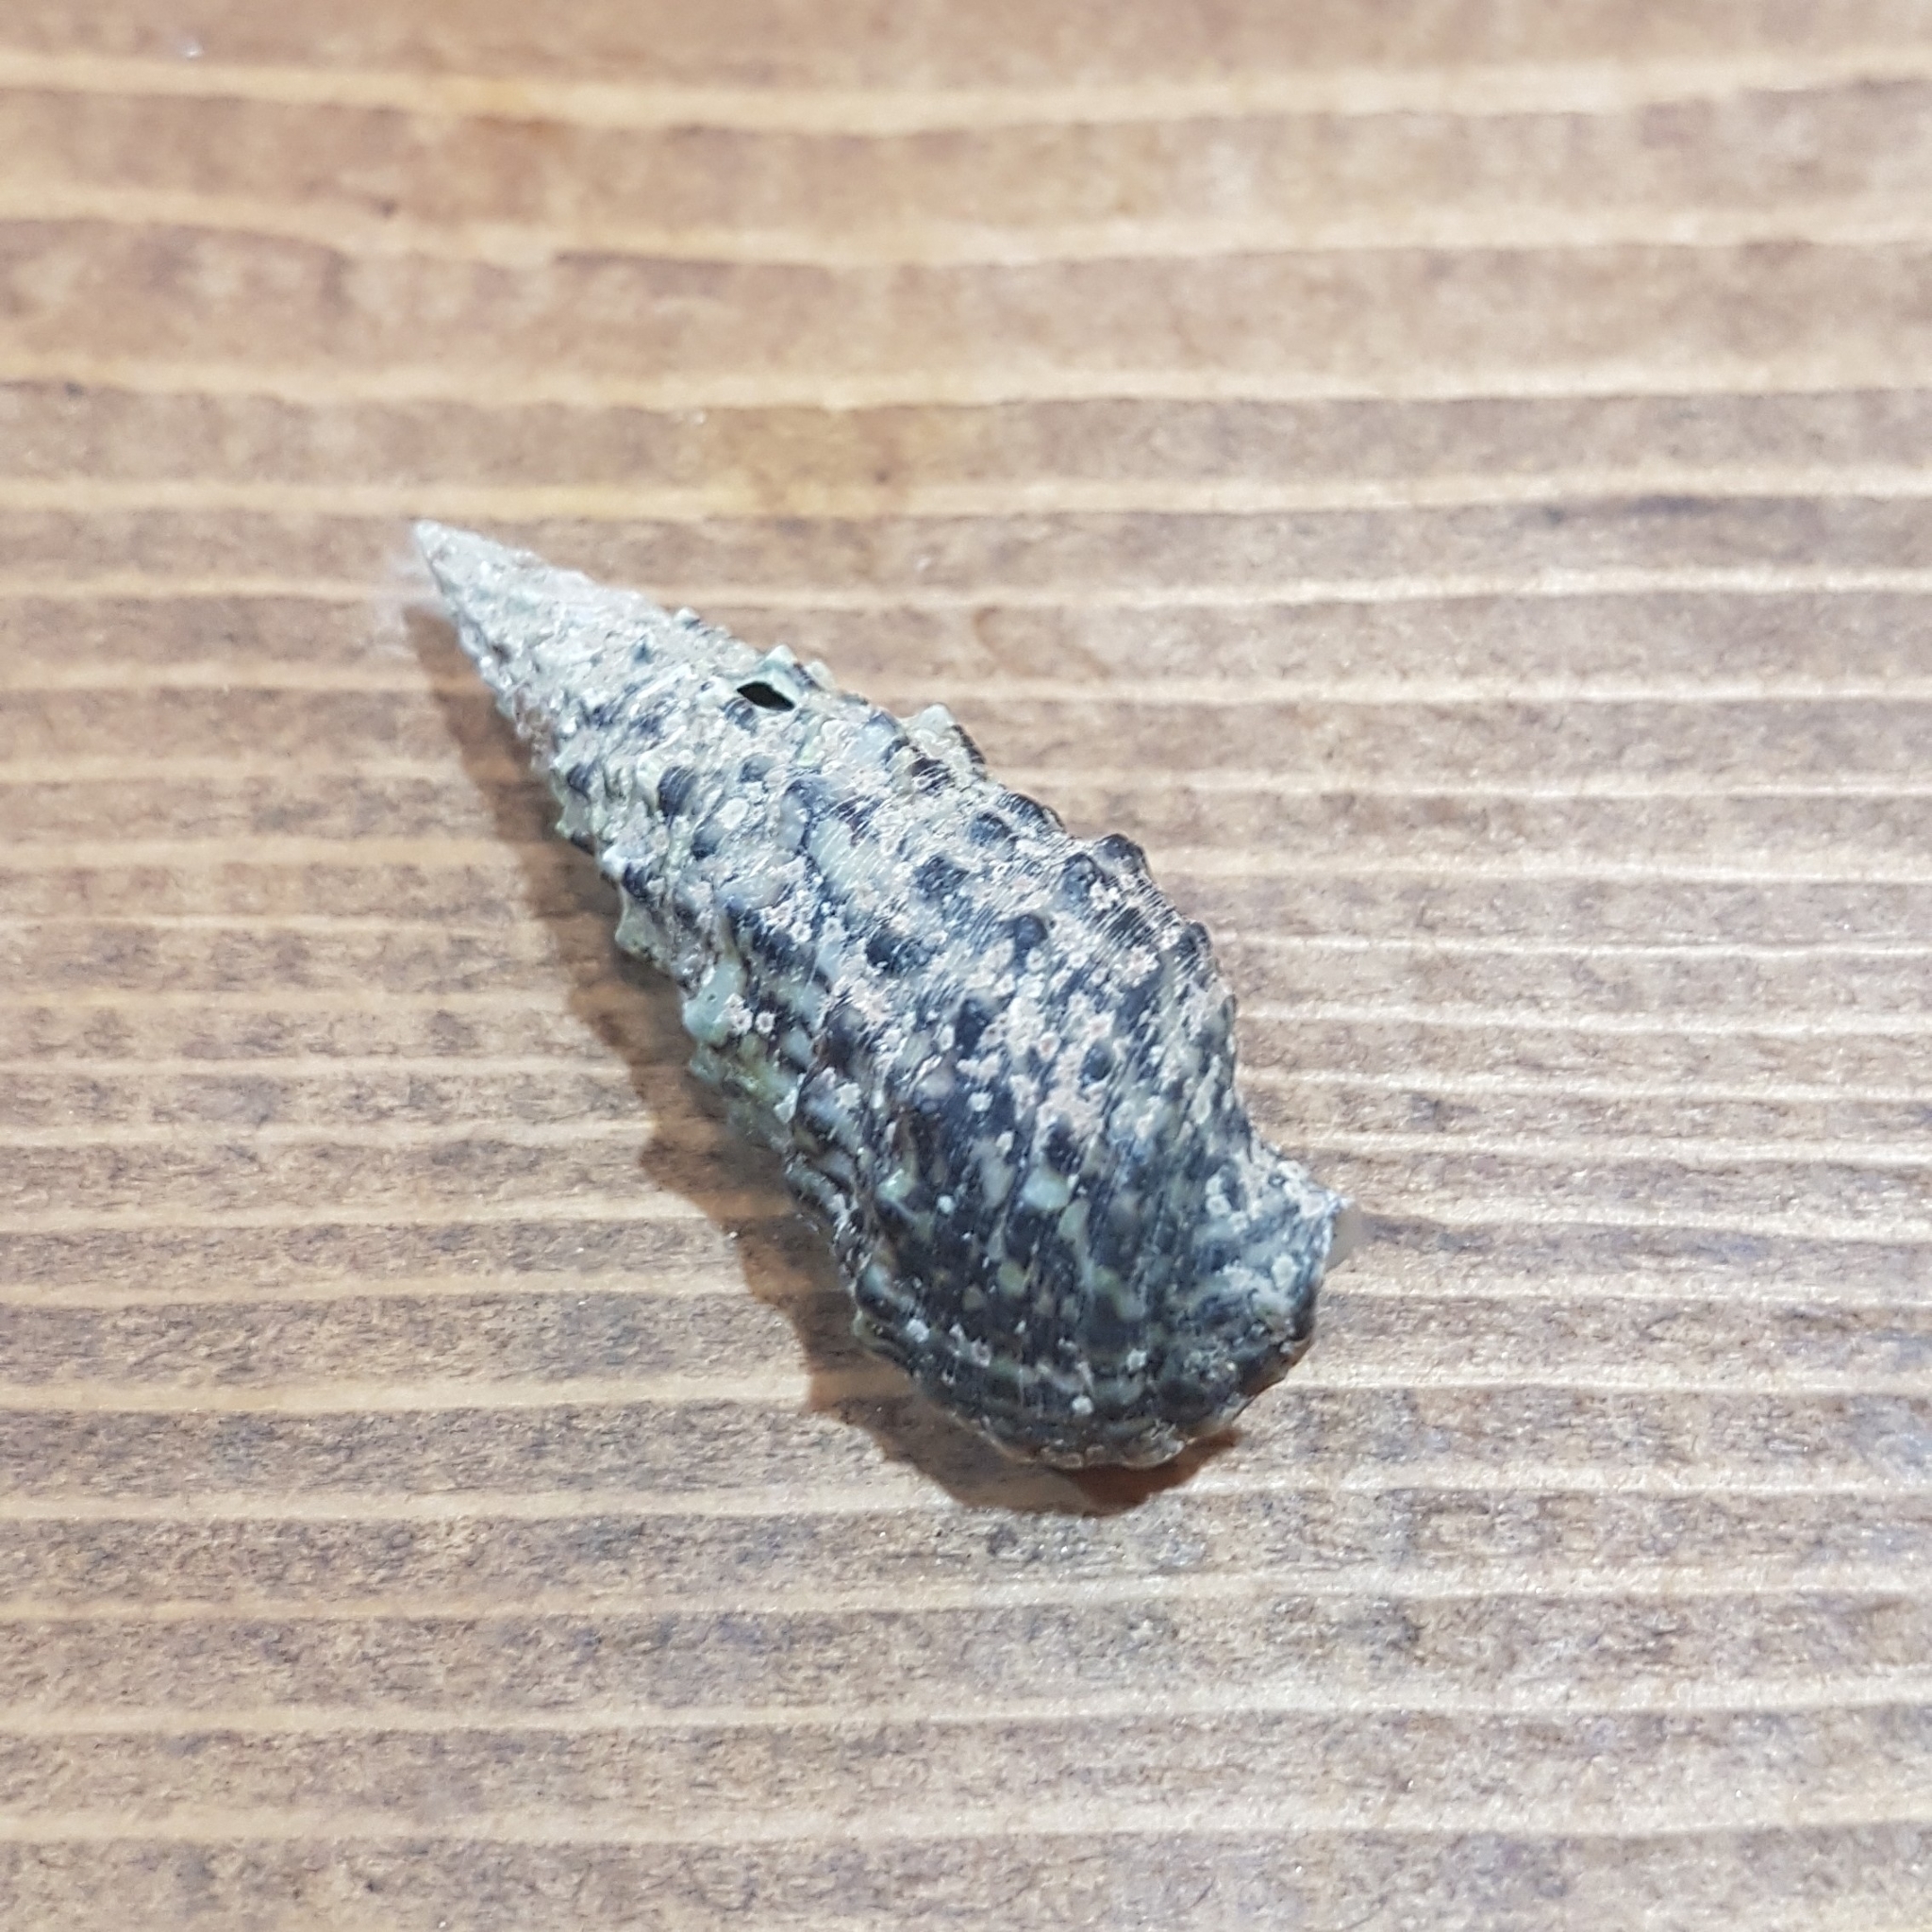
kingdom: Animalia
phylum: Mollusca
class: Gastropoda
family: Cerithiidae
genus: Cerithium
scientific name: Cerithium vulgatum
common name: European cerith
